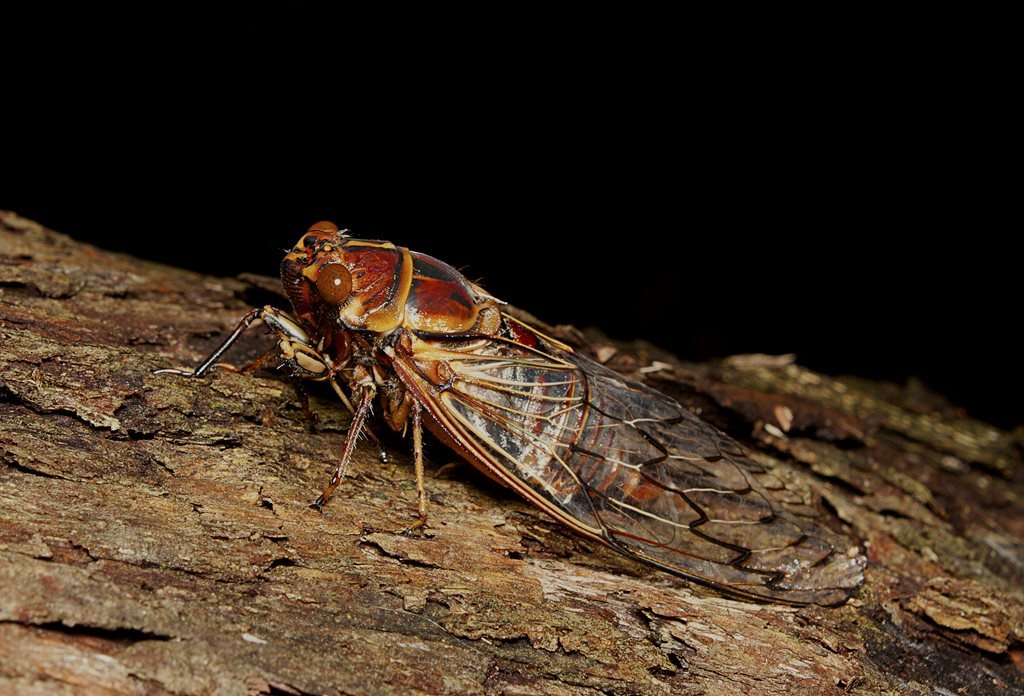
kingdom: Animalia
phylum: Arthropoda
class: Insecta
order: Hemiptera
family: Cicadidae
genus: Henicopsaltria
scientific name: Henicopsaltria eydouxii
